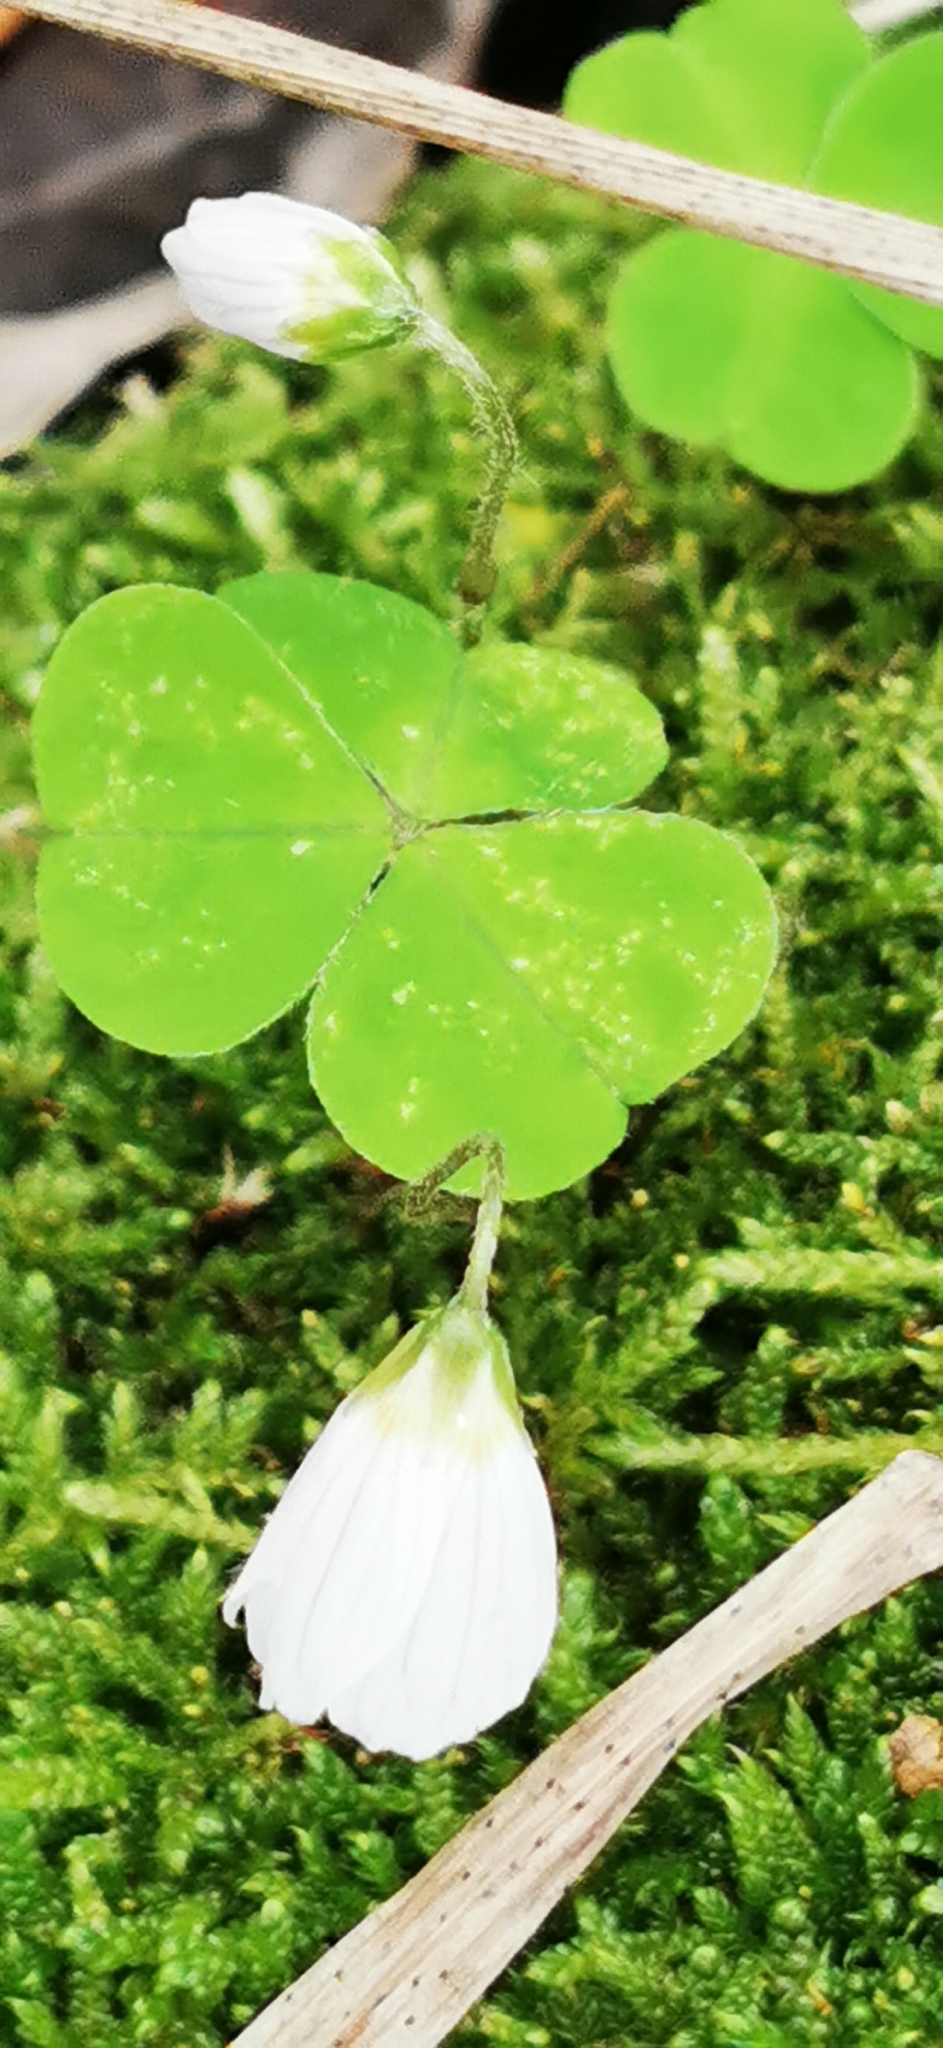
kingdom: Plantae
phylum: Tracheophyta
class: Magnoliopsida
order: Oxalidales
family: Oxalidaceae
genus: Oxalis
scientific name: Oxalis acetosella
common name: Wood-sorrel
